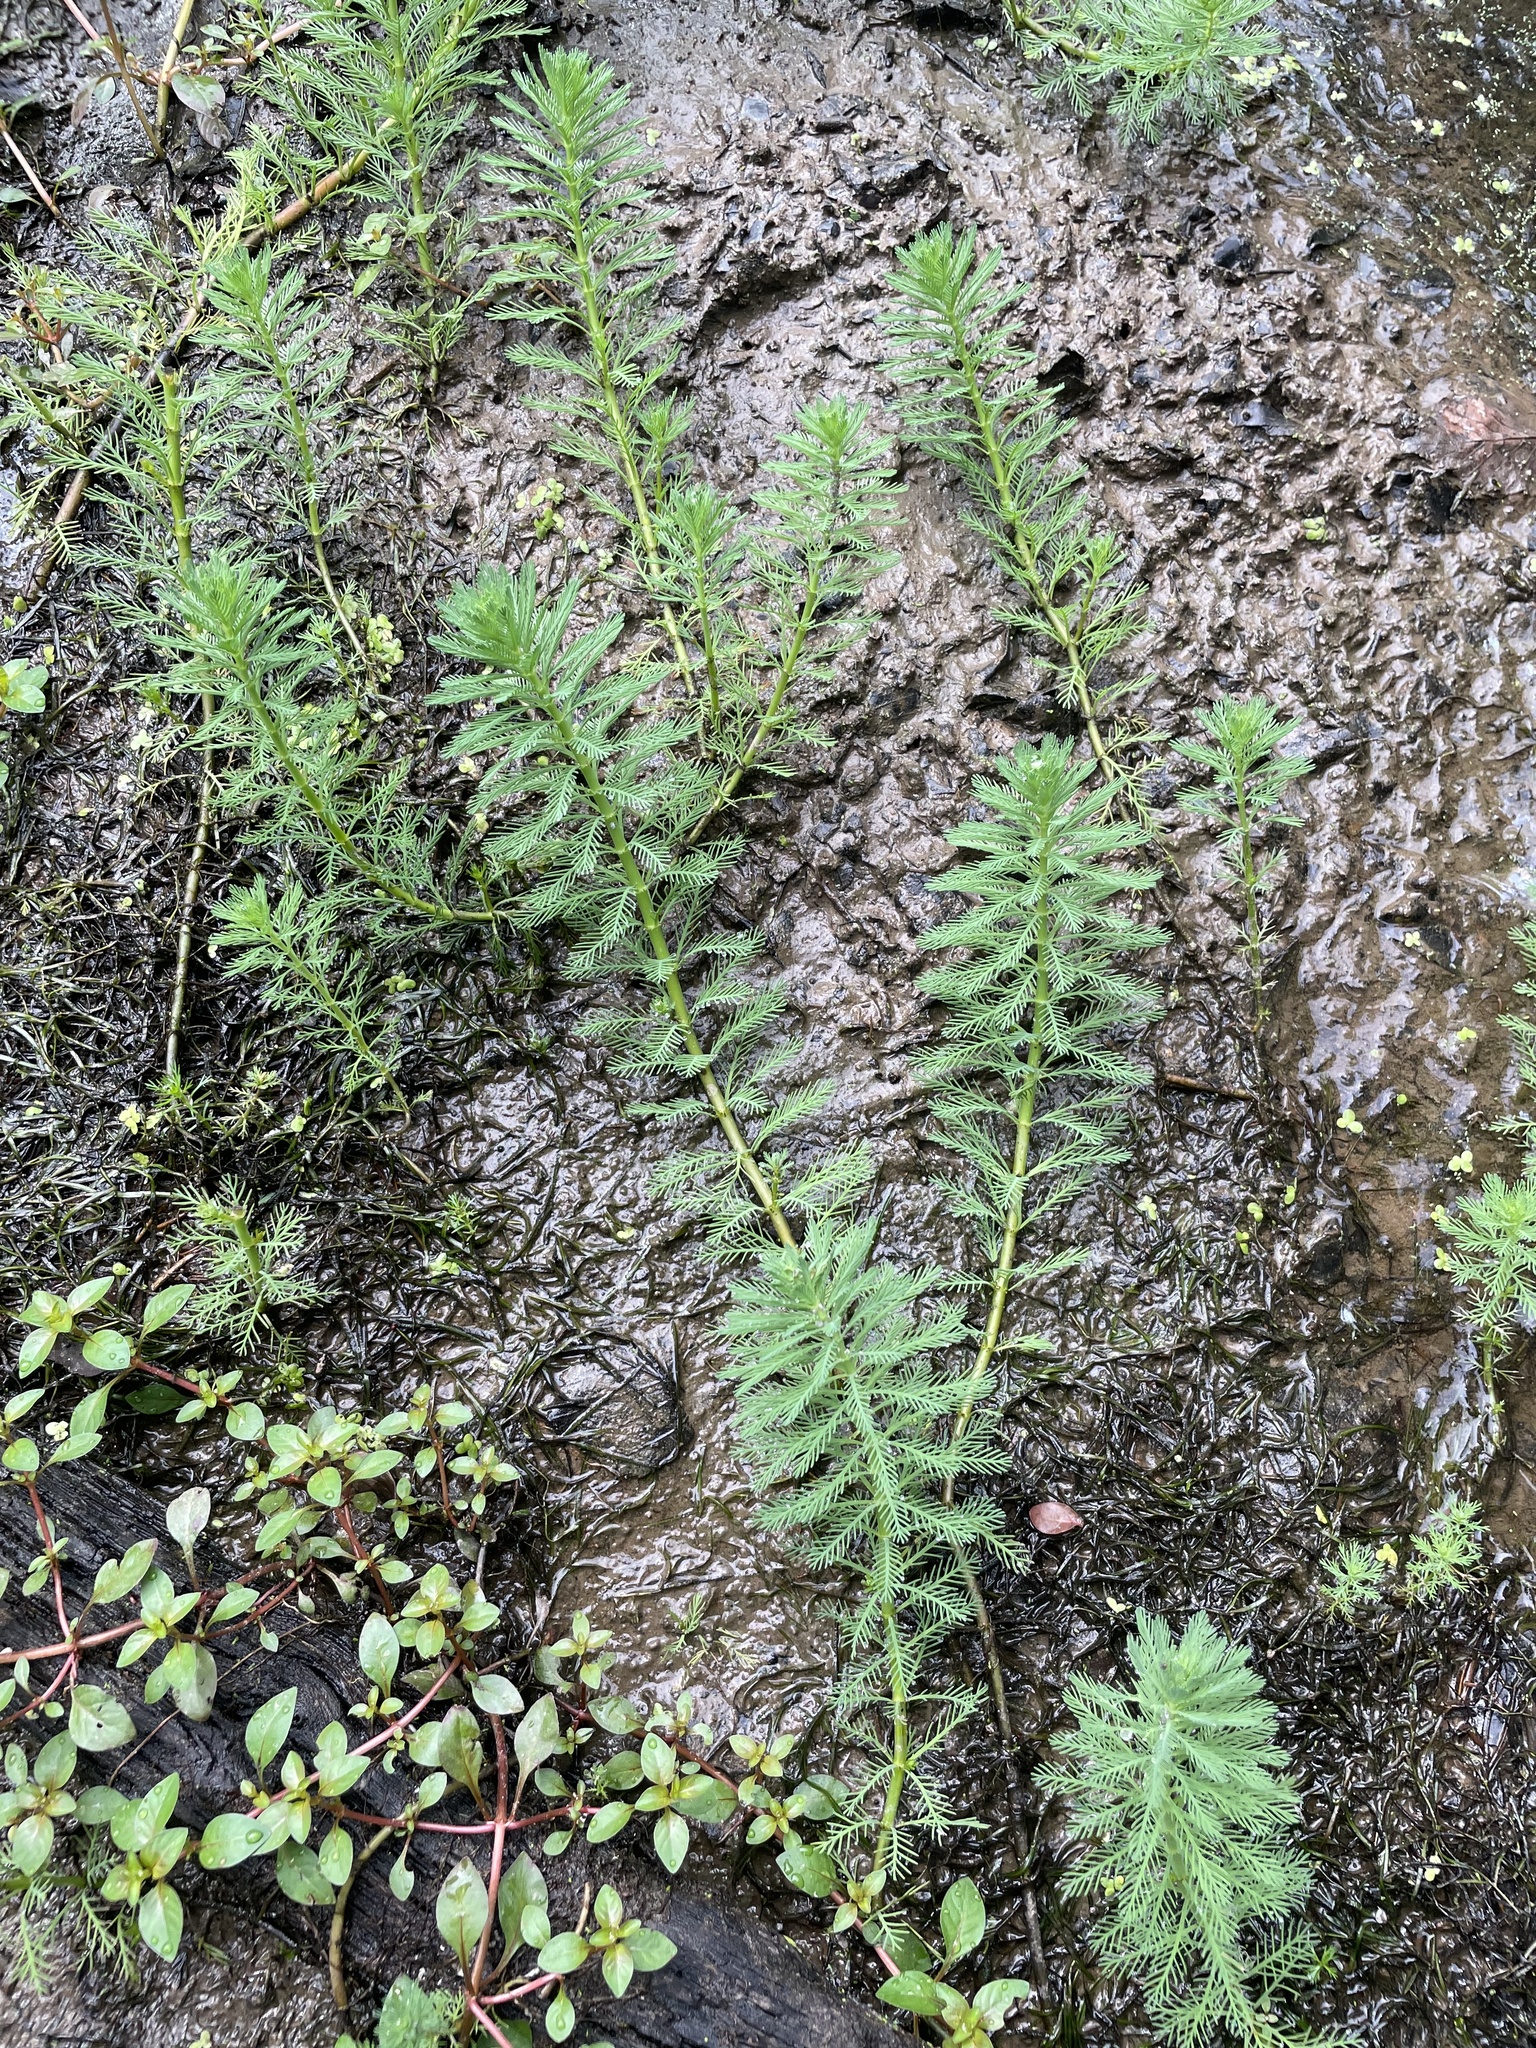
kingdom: Plantae
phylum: Tracheophyta
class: Magnoliopsida
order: Saxifragales
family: Haloragaceae
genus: Myriophyllum
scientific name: Myriophyllum aquaticum
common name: Parrot's feather
